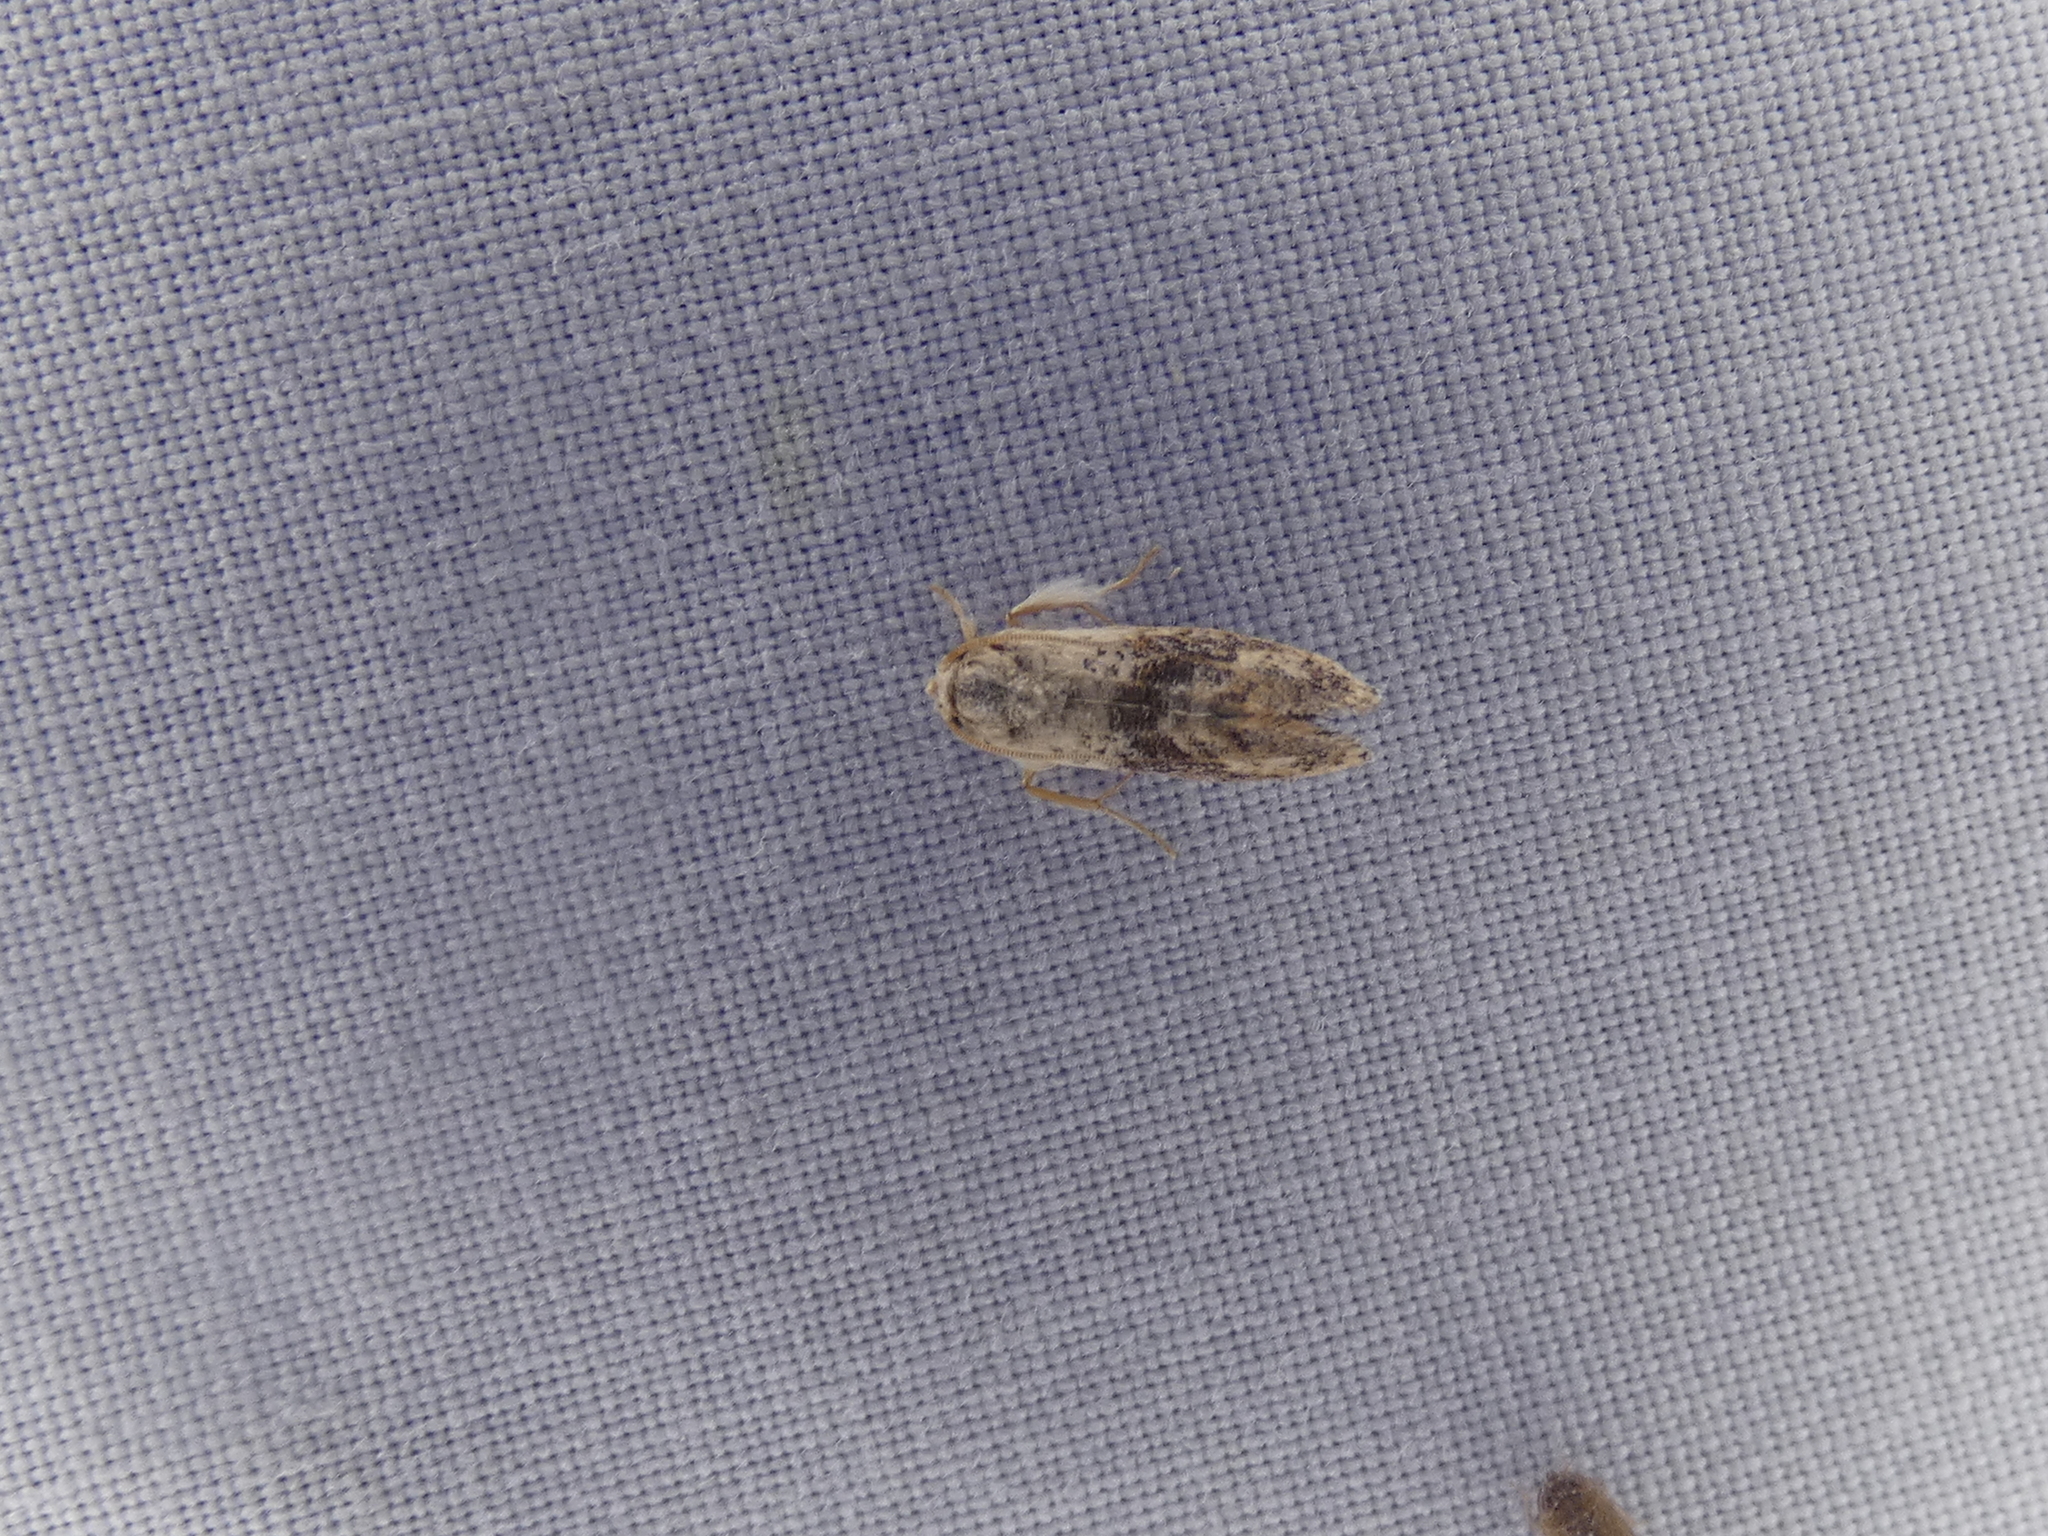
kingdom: Animalia
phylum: Arthropoda
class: Insecta
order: Lepidoptera
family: Tineidae
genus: Acrolophus
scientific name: Acrolophus mycetophagus
